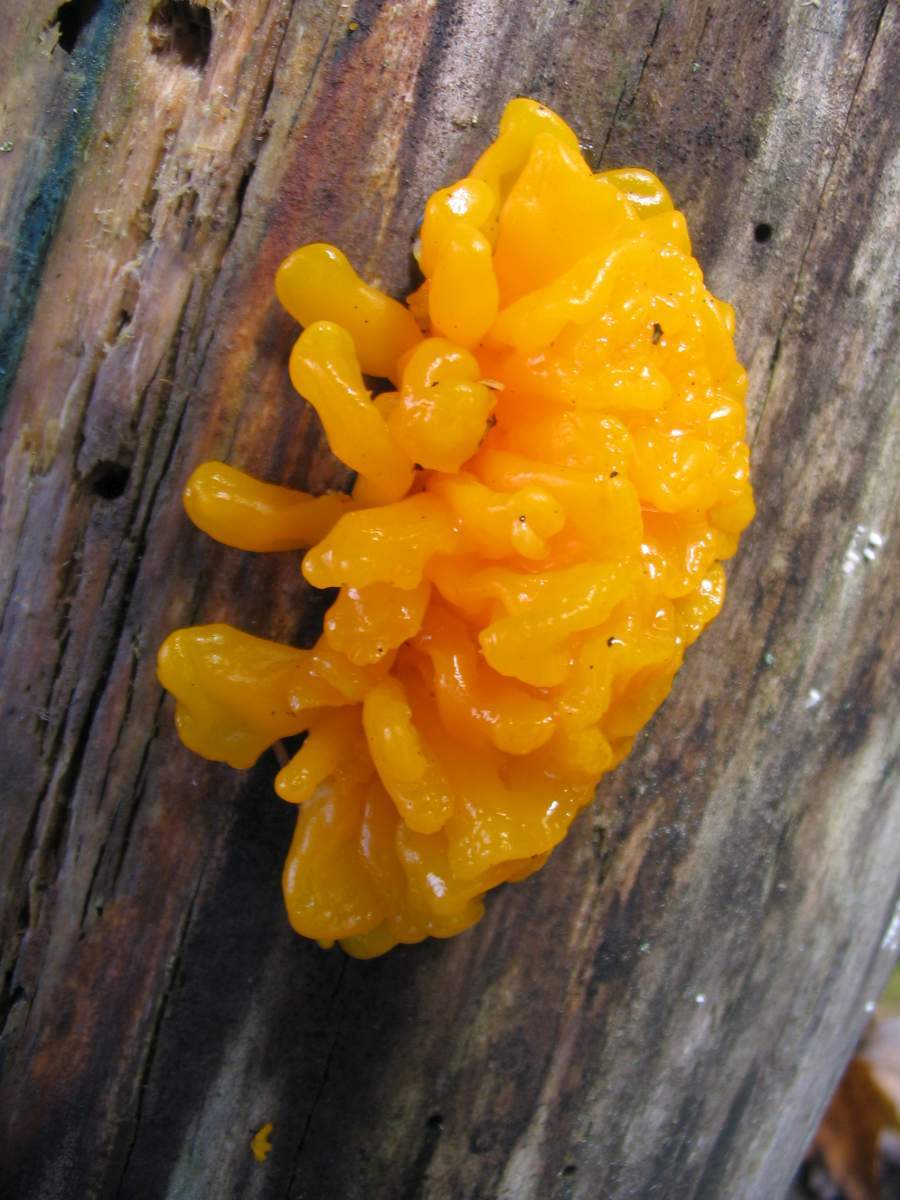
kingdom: Fungi
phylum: Basidiomycota
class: Dacrymycetes
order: Dacrymycetales
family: Dacrymycetaceae
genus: Dacrymyces
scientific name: Dacrymyces chrysospermus
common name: Orange jelly spot
